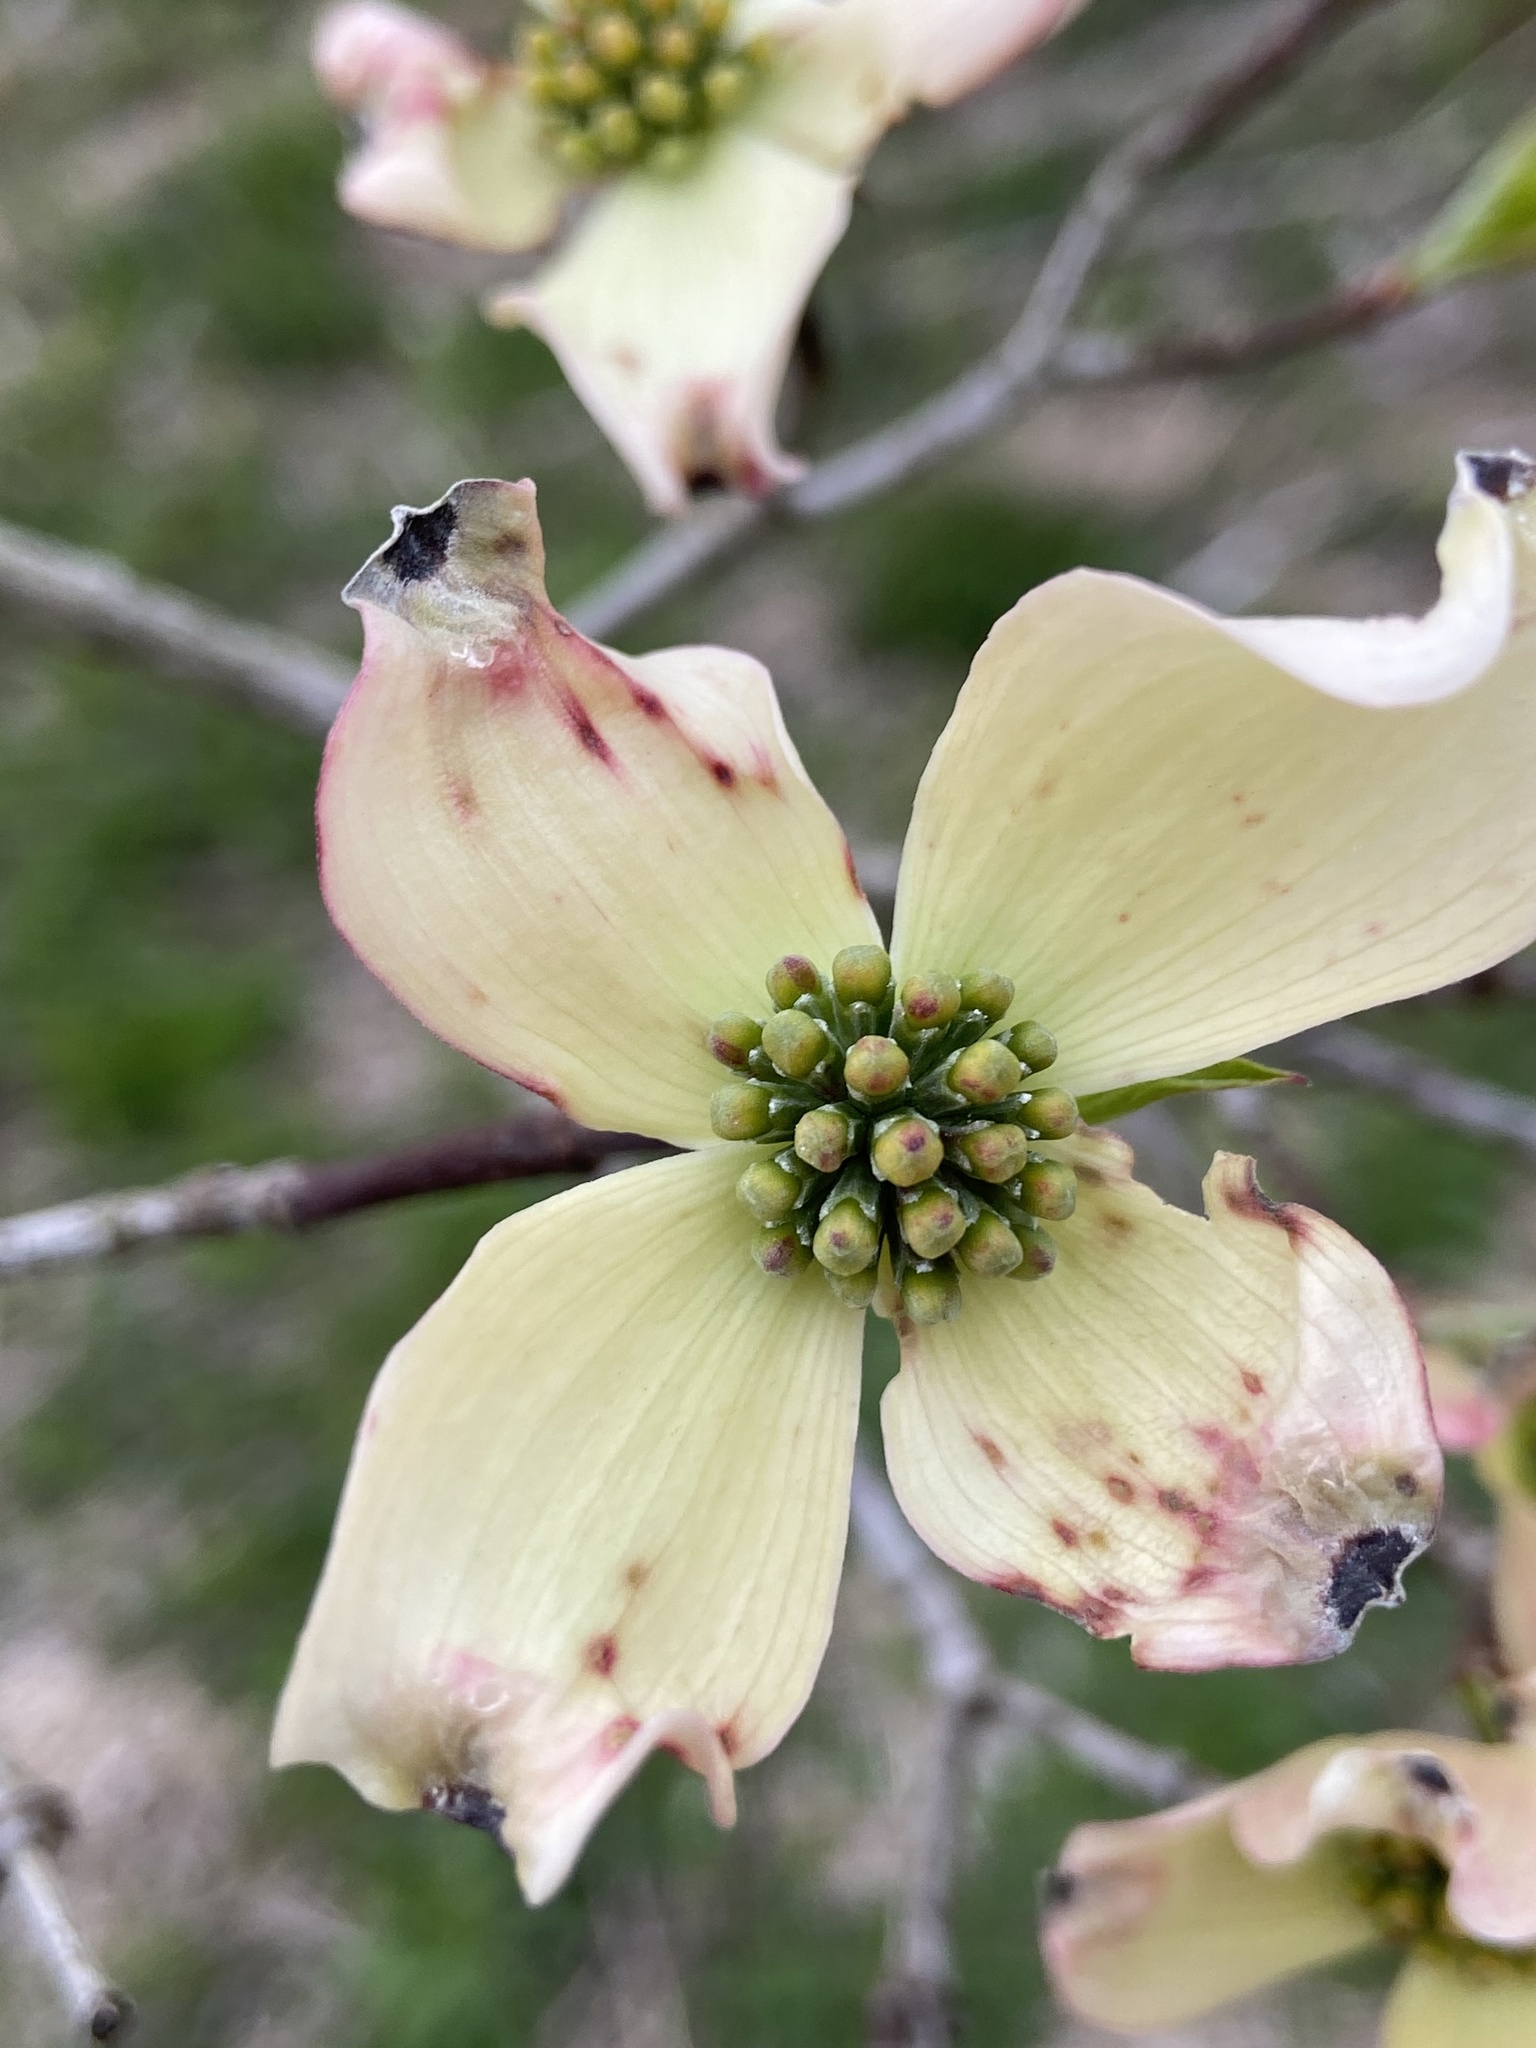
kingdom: Plantae
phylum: Tracheophyta
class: Magnoliopsida
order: Cornales
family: Cornaceae
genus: Cornus
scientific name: Cornus florida
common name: Flowering dogwood
